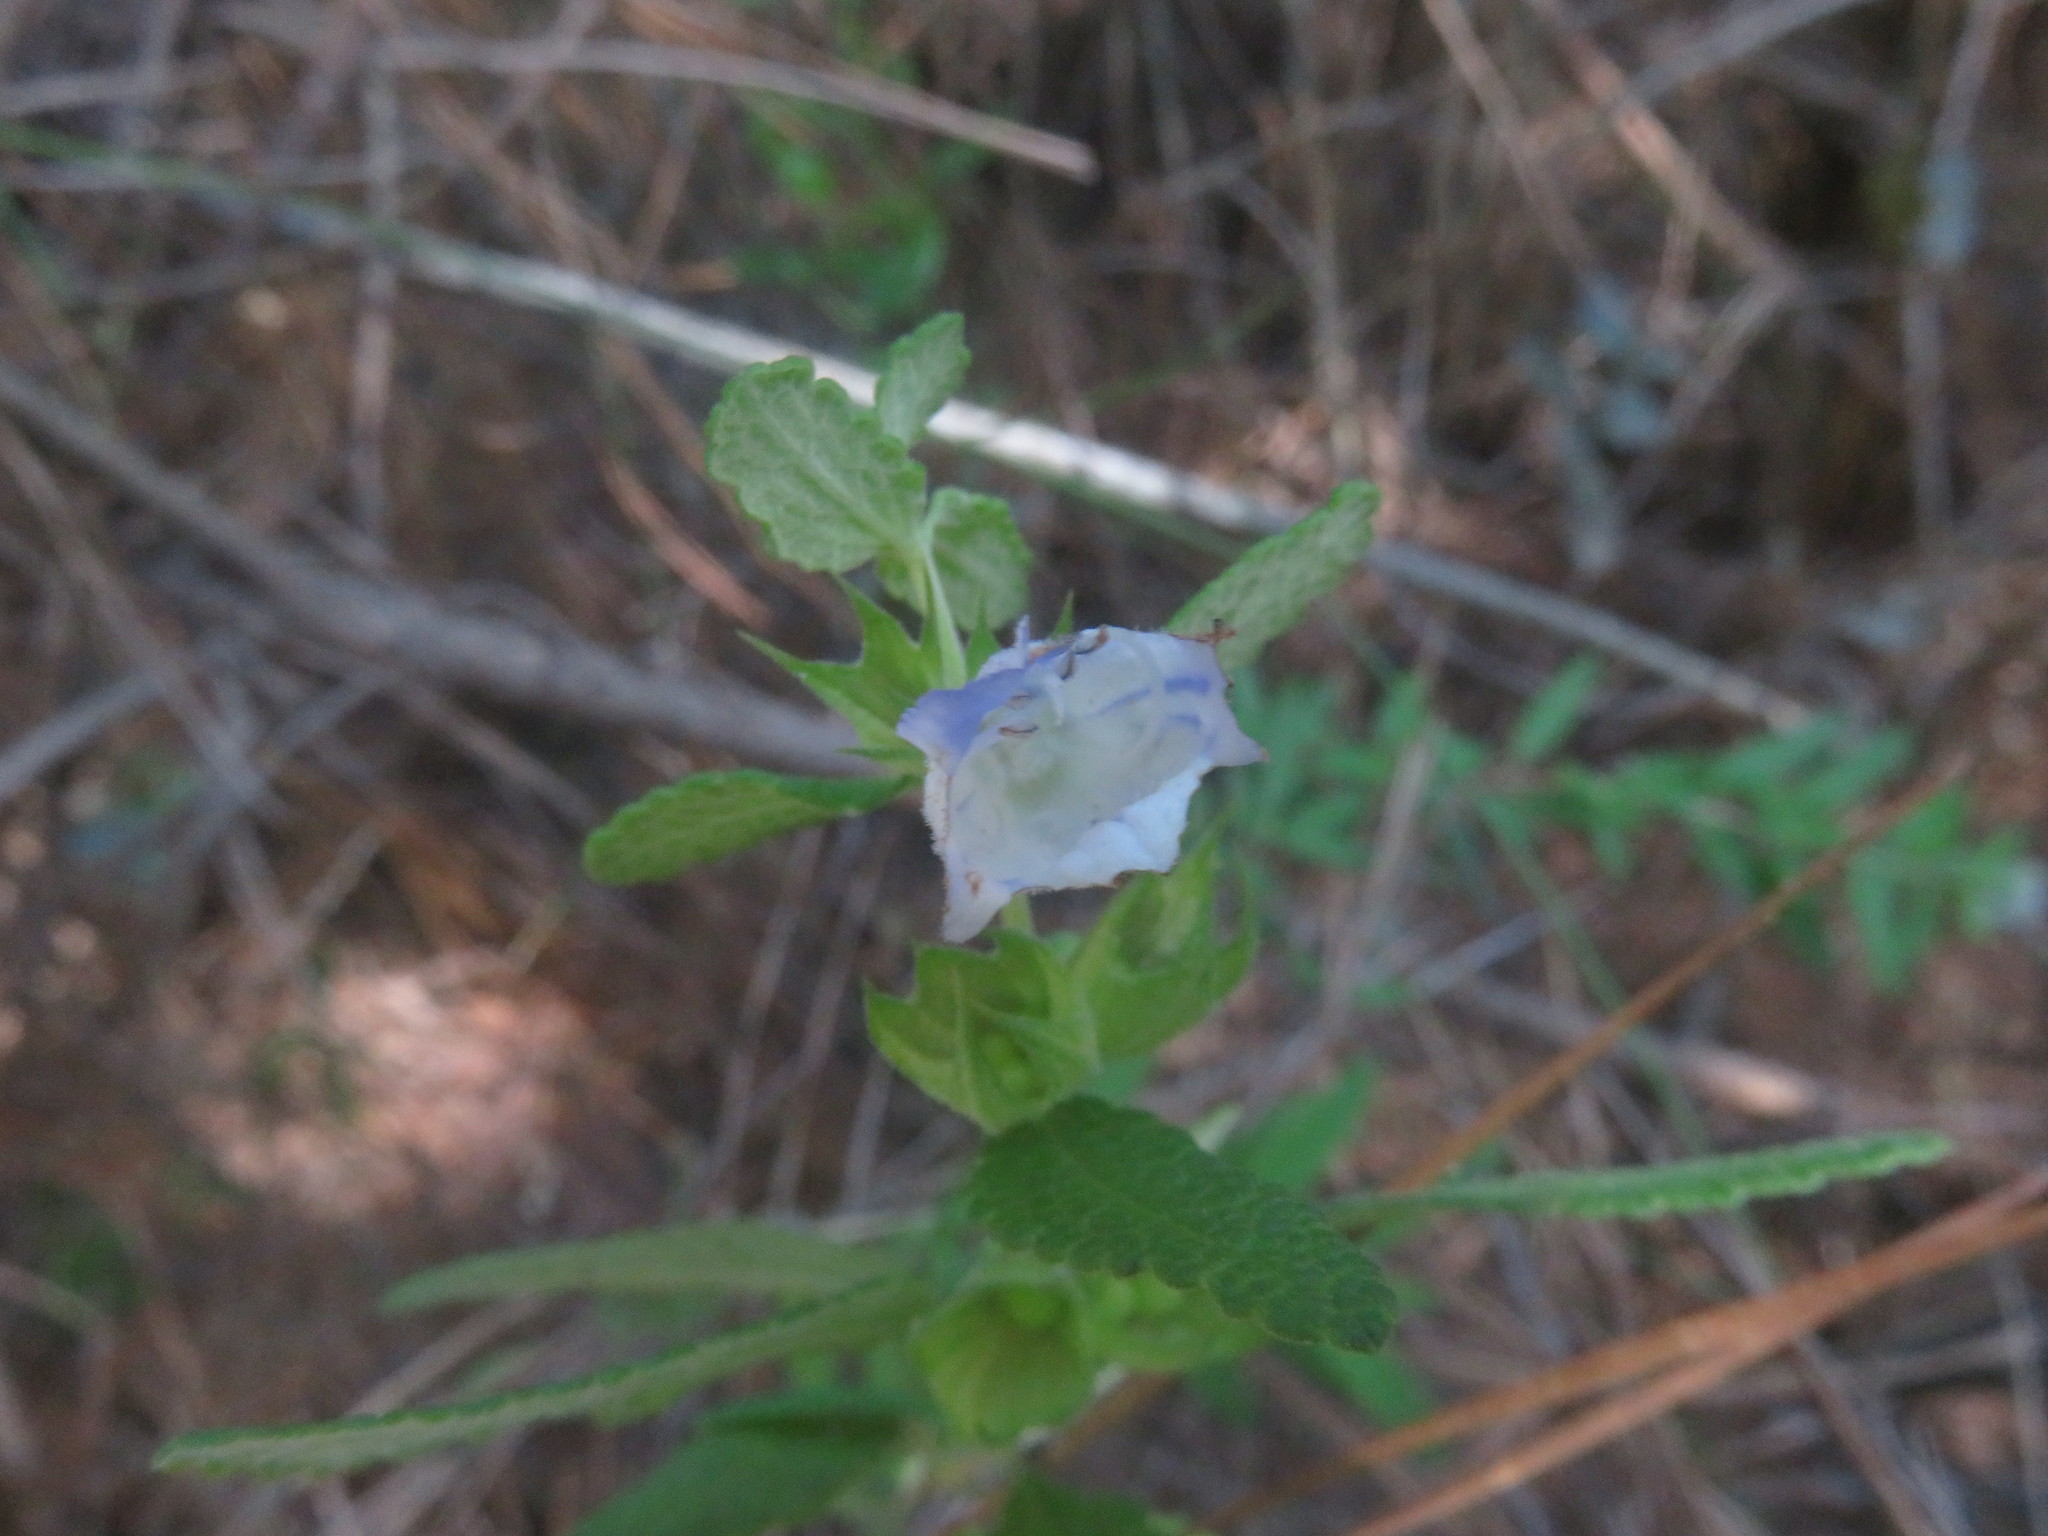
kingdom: Plantae
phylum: Tracheophyta
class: Magnoliopsida
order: Lamiales
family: Lamiaceae
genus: Lepechinia
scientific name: Lepechinia chilensis
